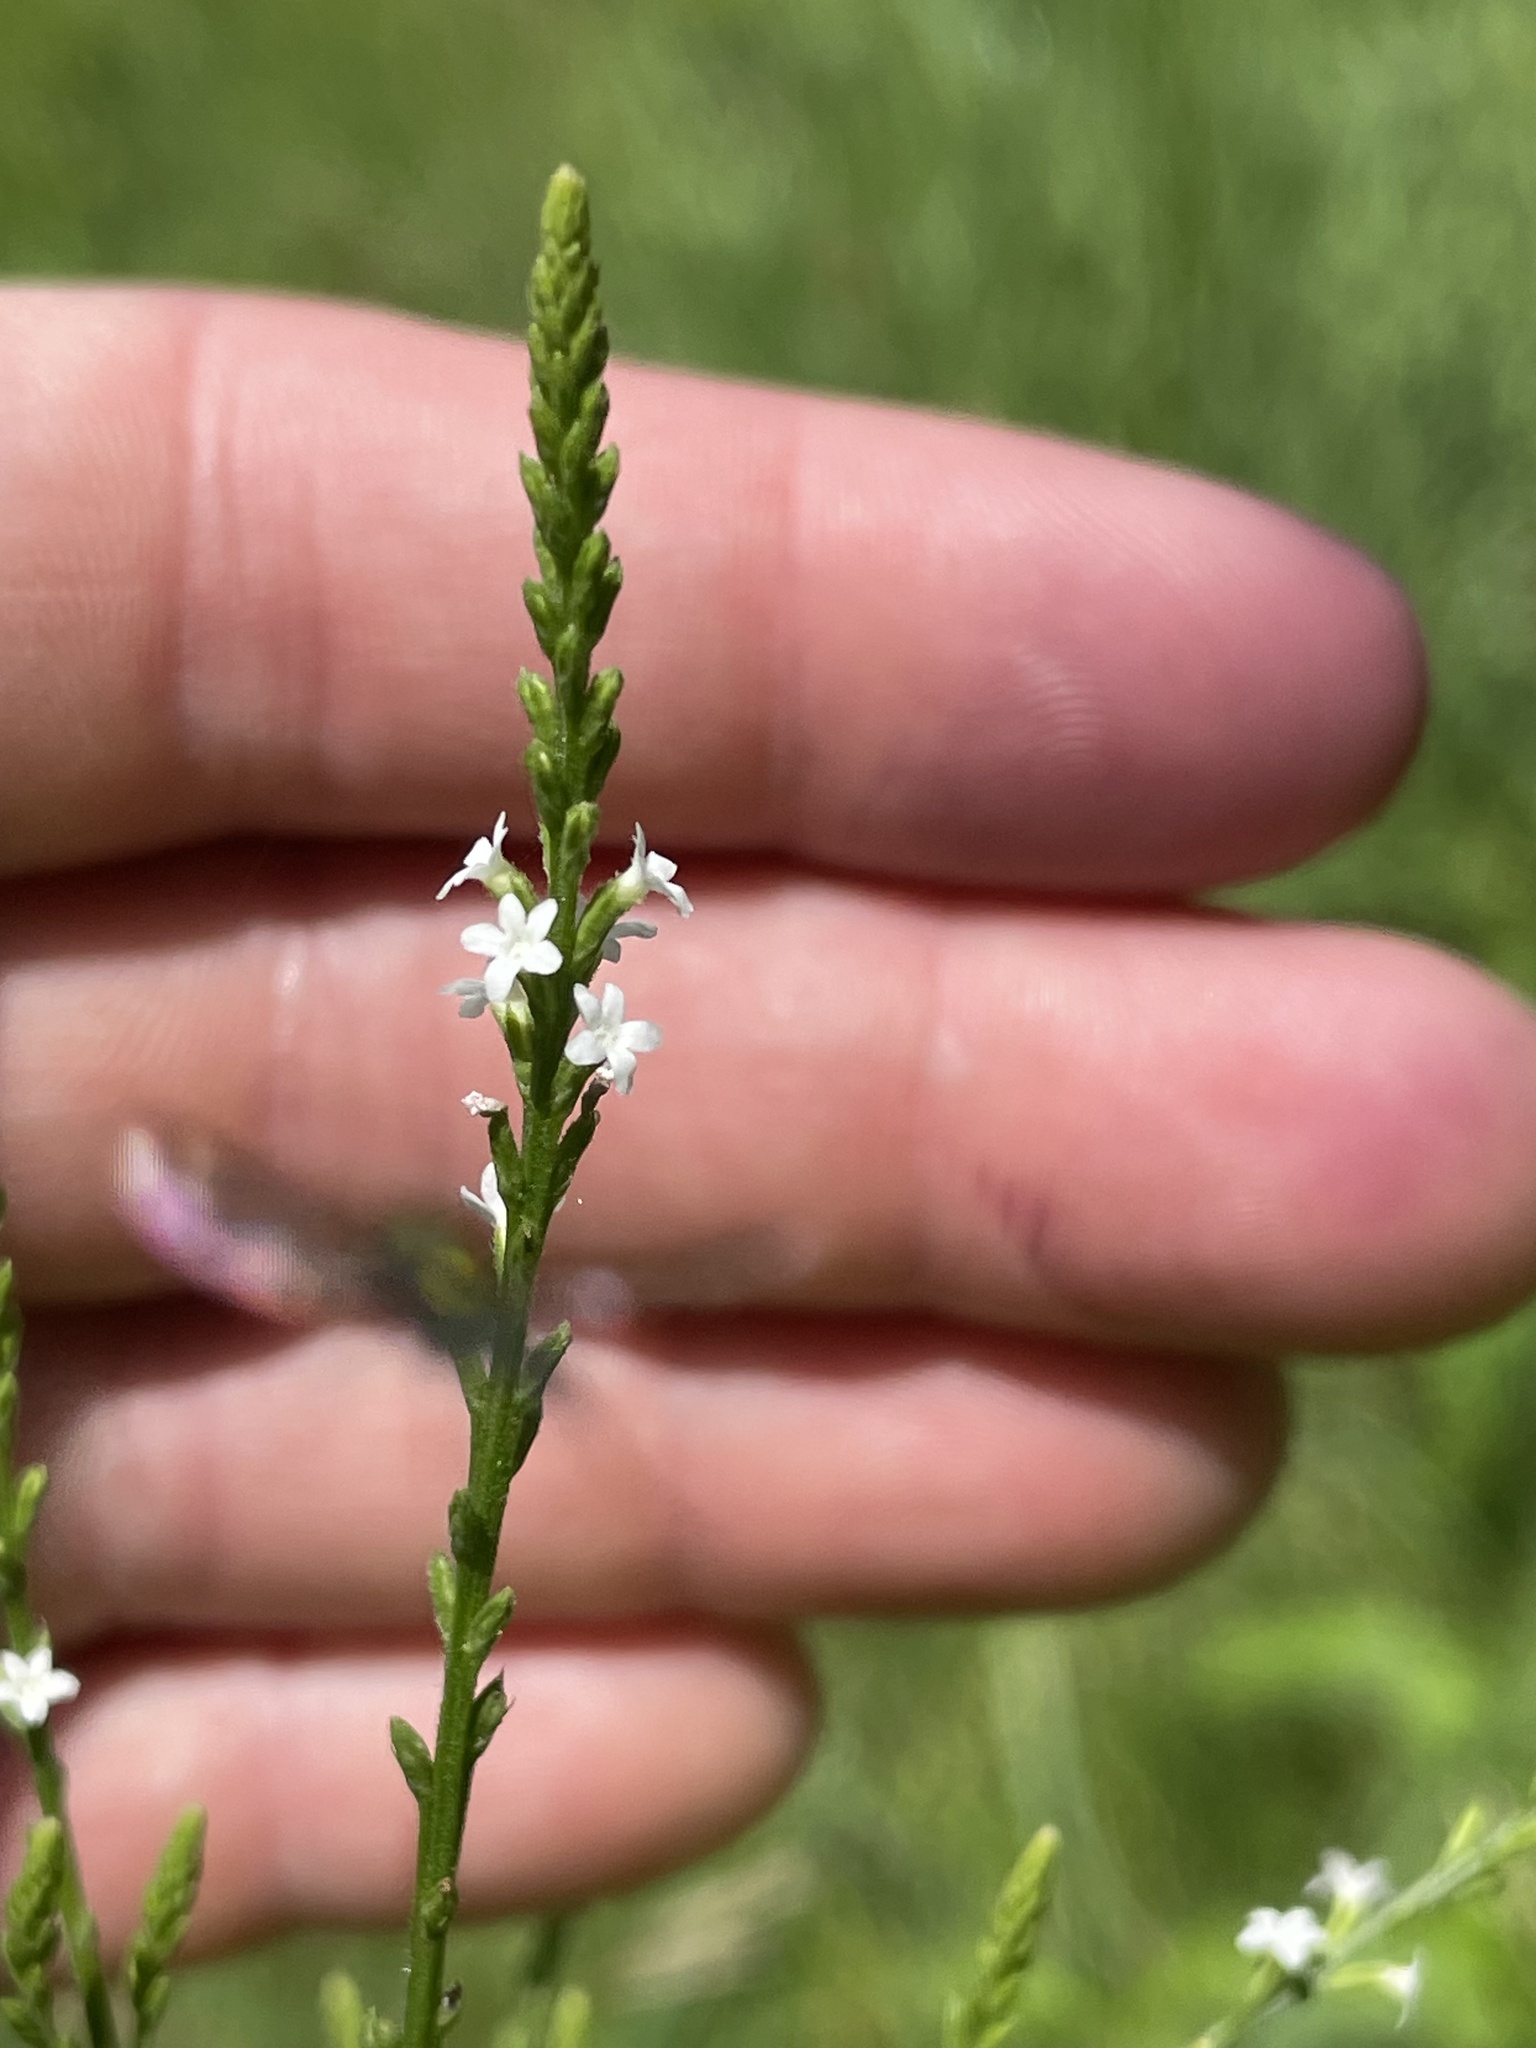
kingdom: Plantae
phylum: Tracheophyta
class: Magnoliopsida
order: Lamiales
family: Verbenaceae
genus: Verbena
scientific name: Verbena urticifolia
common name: Nettle-leaved vervain
